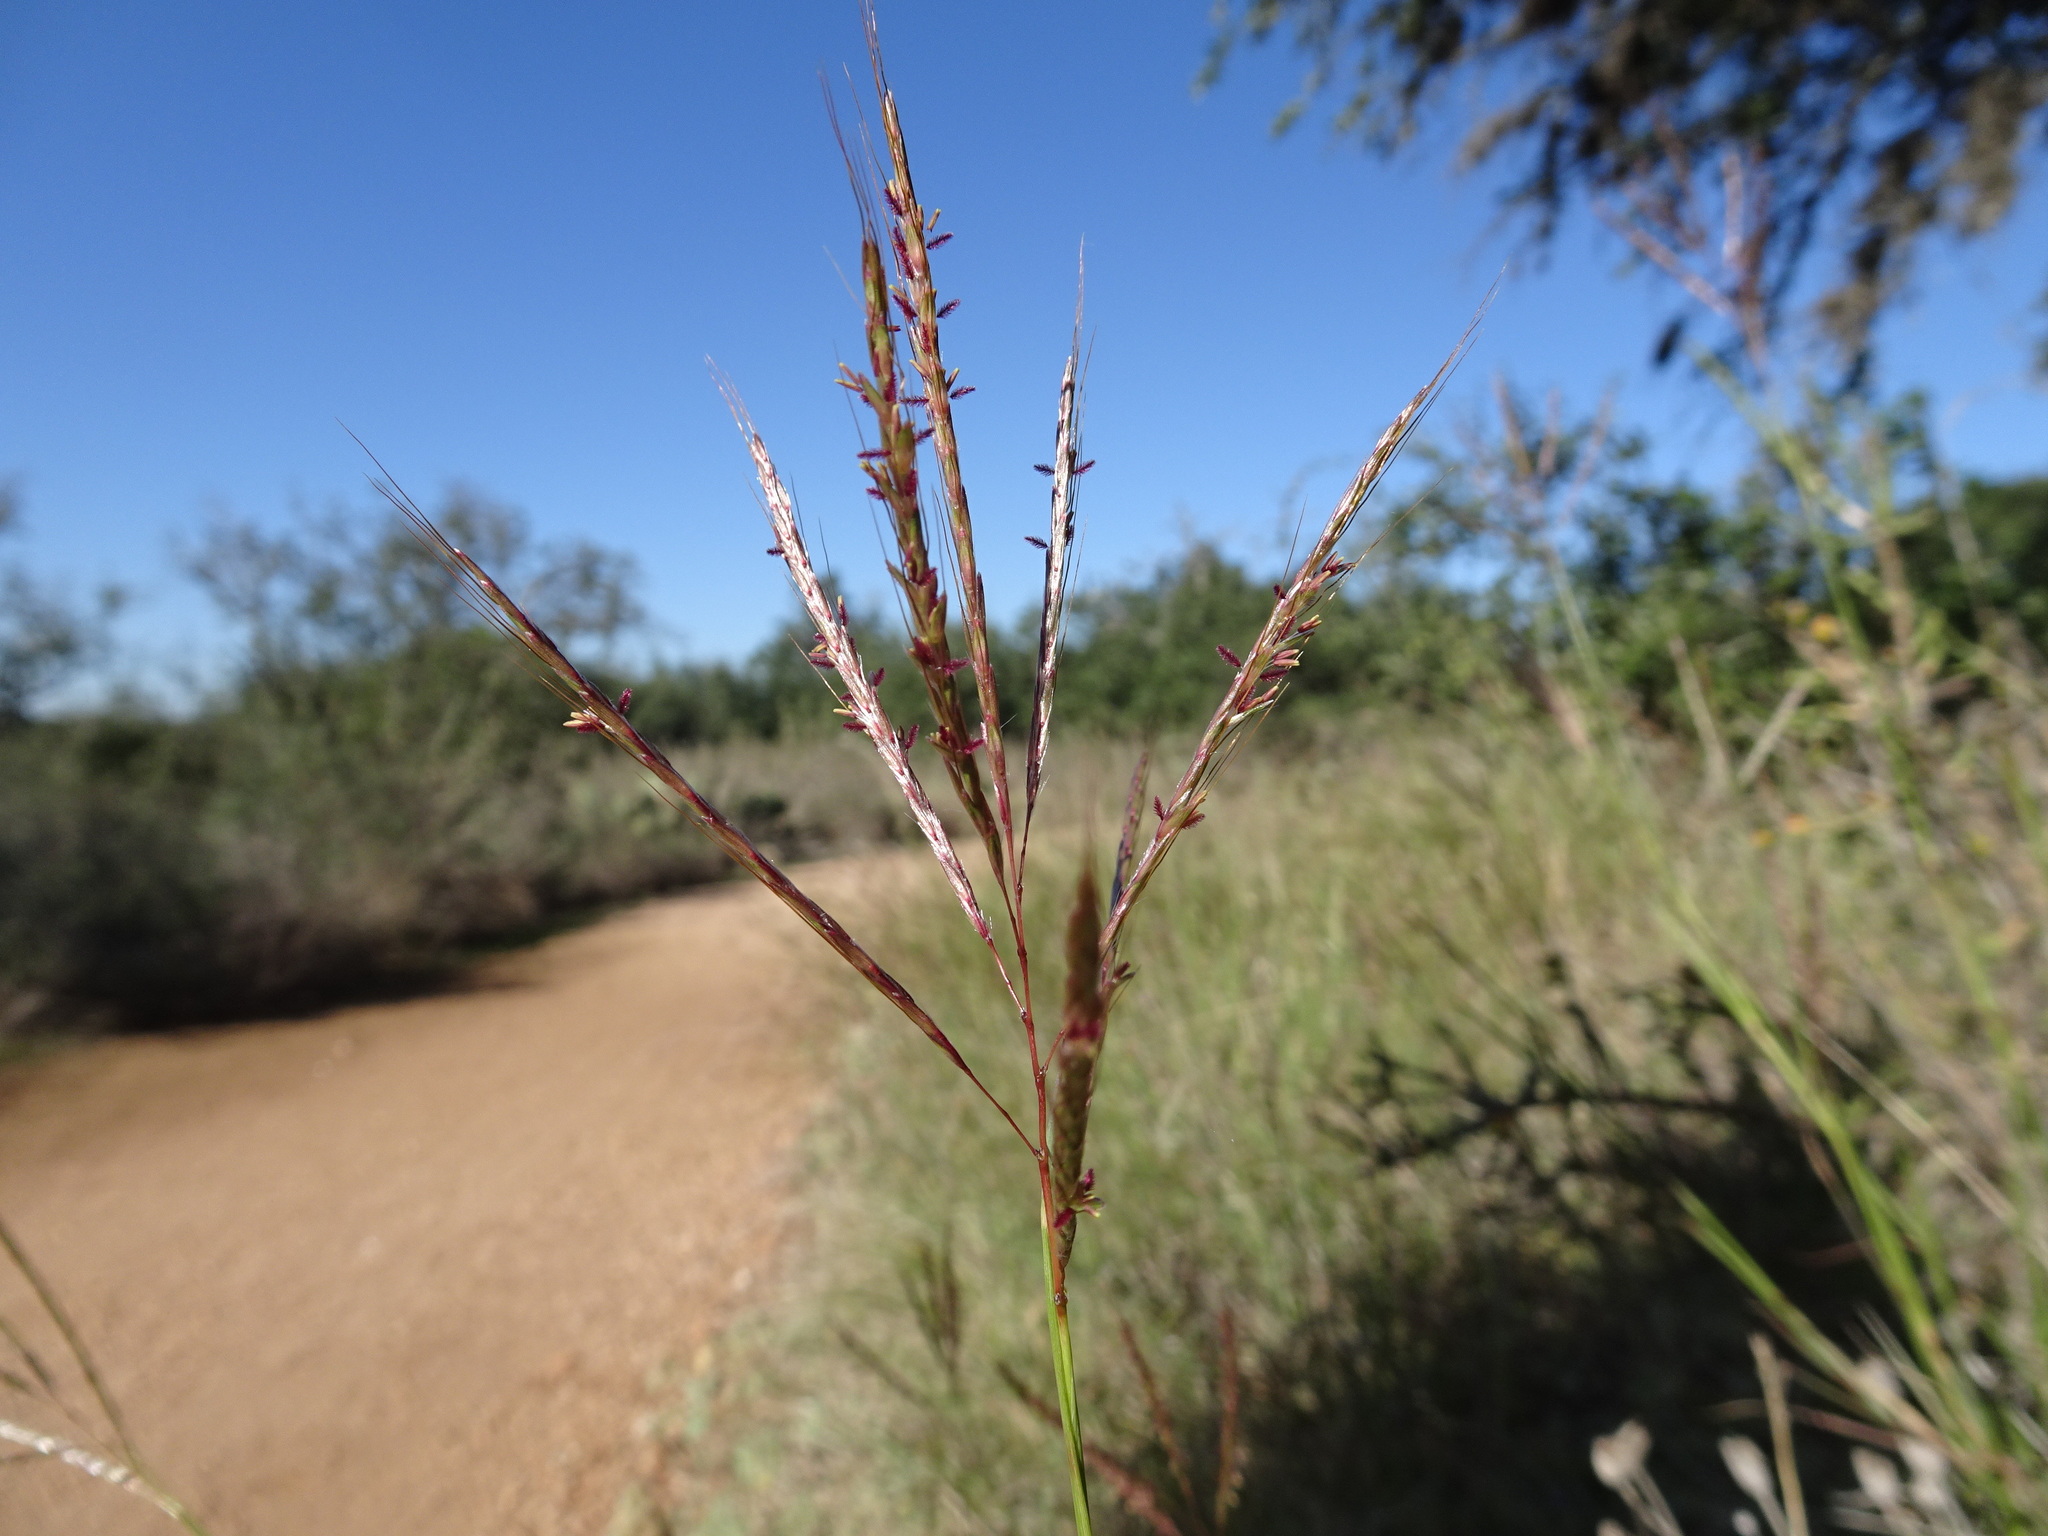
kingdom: Plantae
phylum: Tracheophyta
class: Liliopsida
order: Poales
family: Poaceae
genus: Bothriochloa
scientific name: Bothriochloa ischaemum
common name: Yellow bluestem
